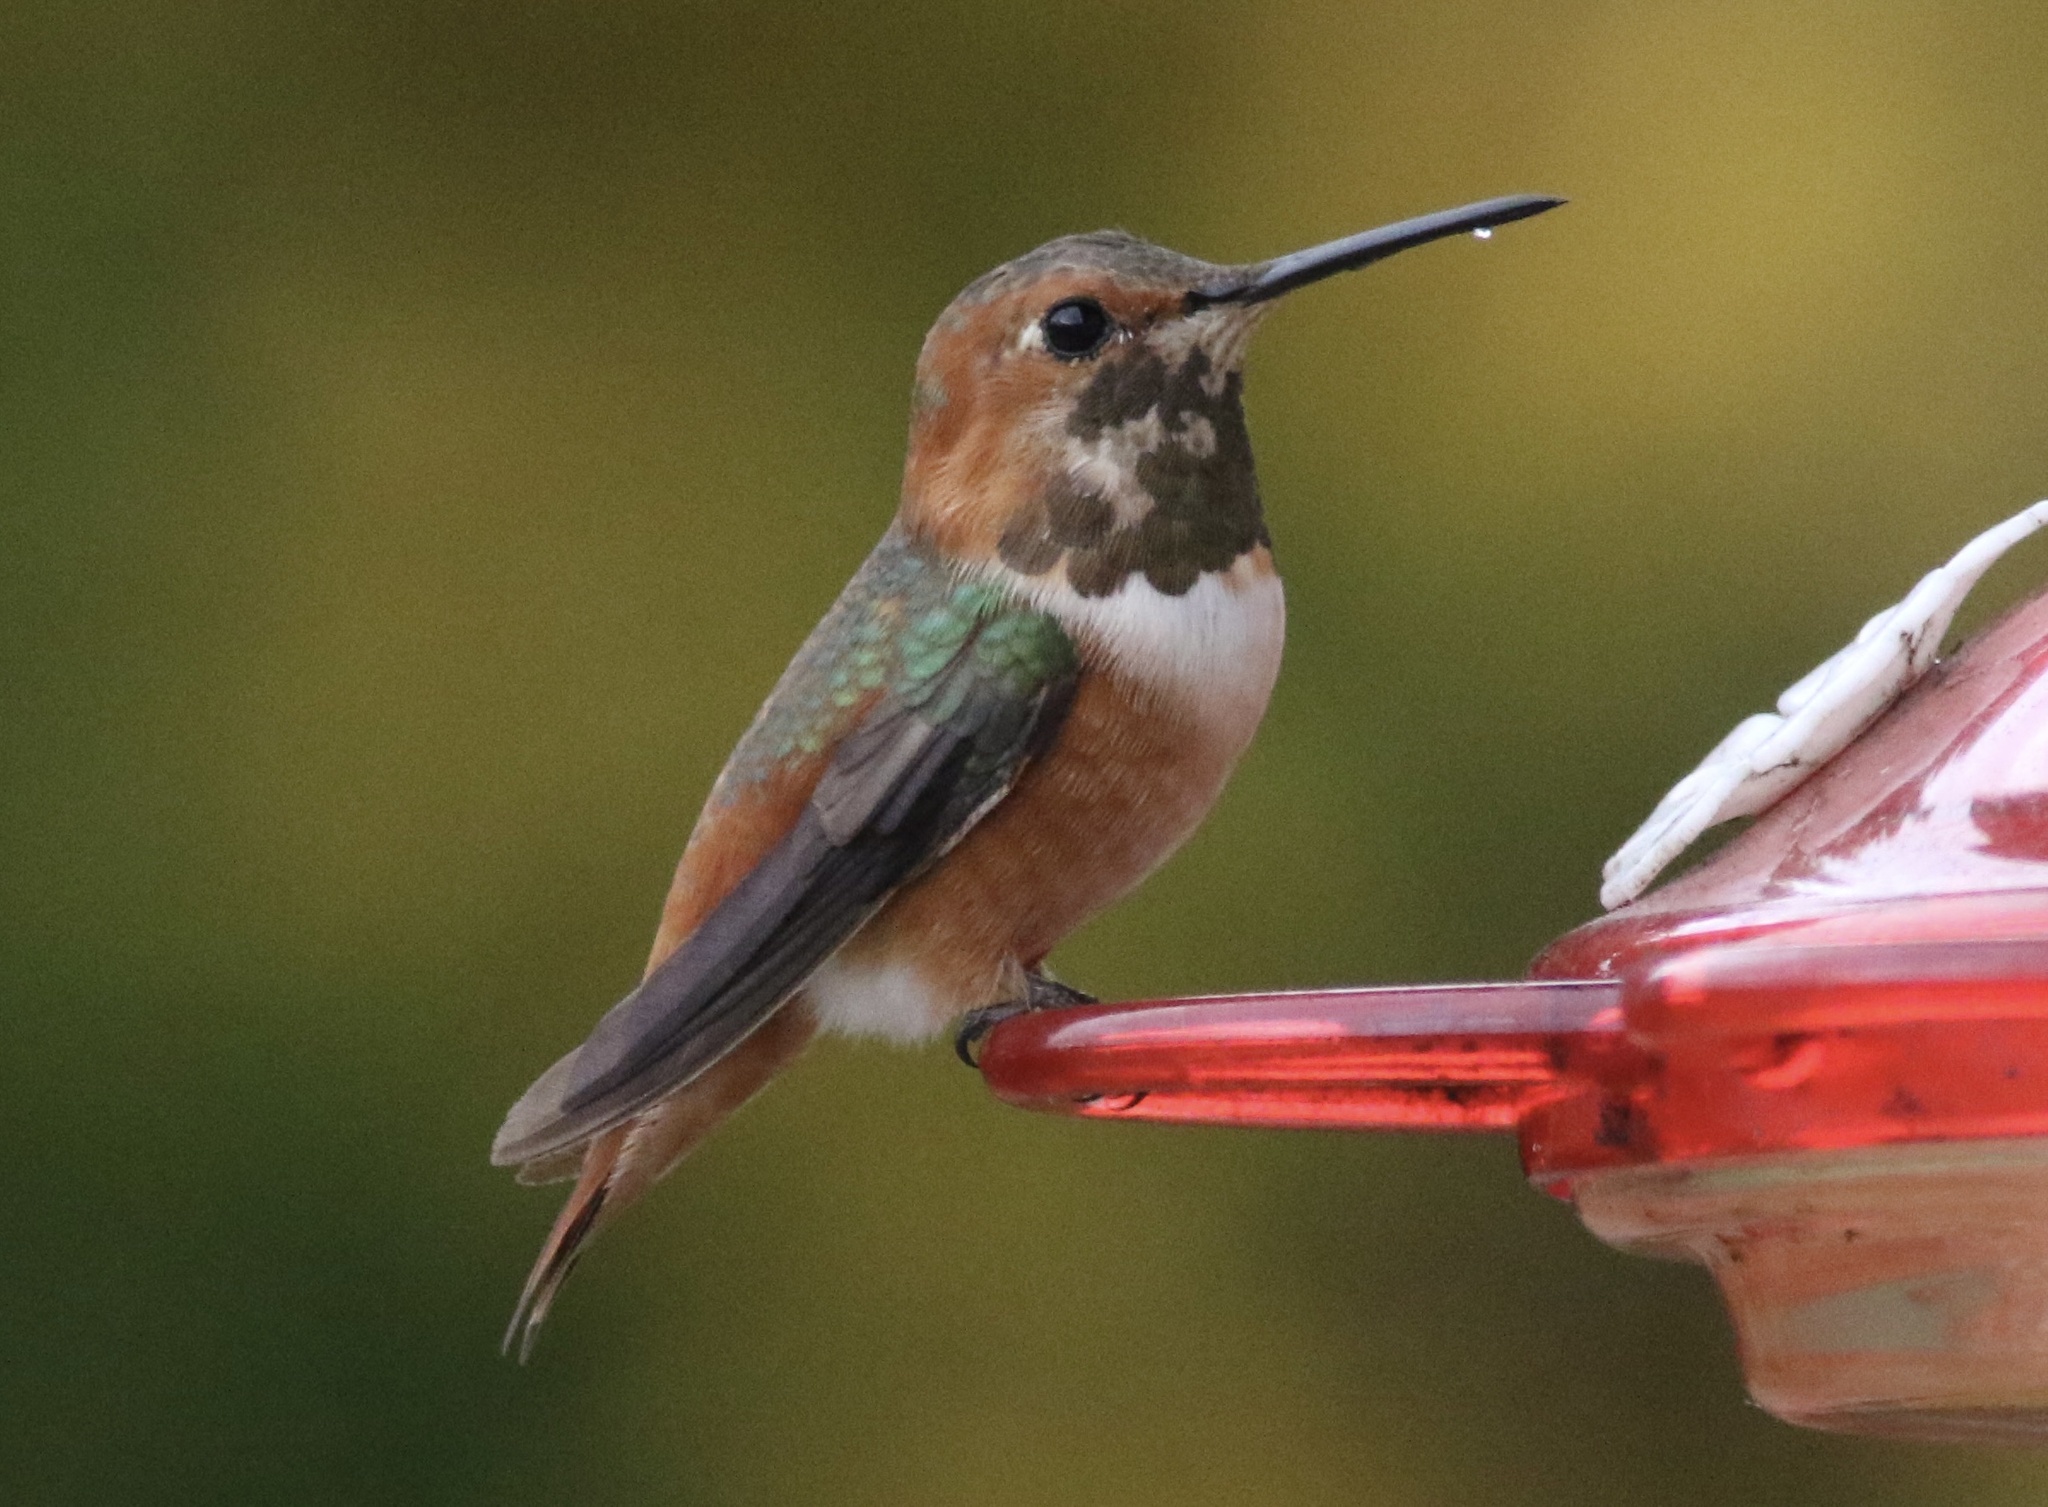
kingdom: Animalia
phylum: Chordata
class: Aves
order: Apodiformes
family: Trochilidae
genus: Selasphorus
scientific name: Selasphorus sasin
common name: Allen's hummingbird
